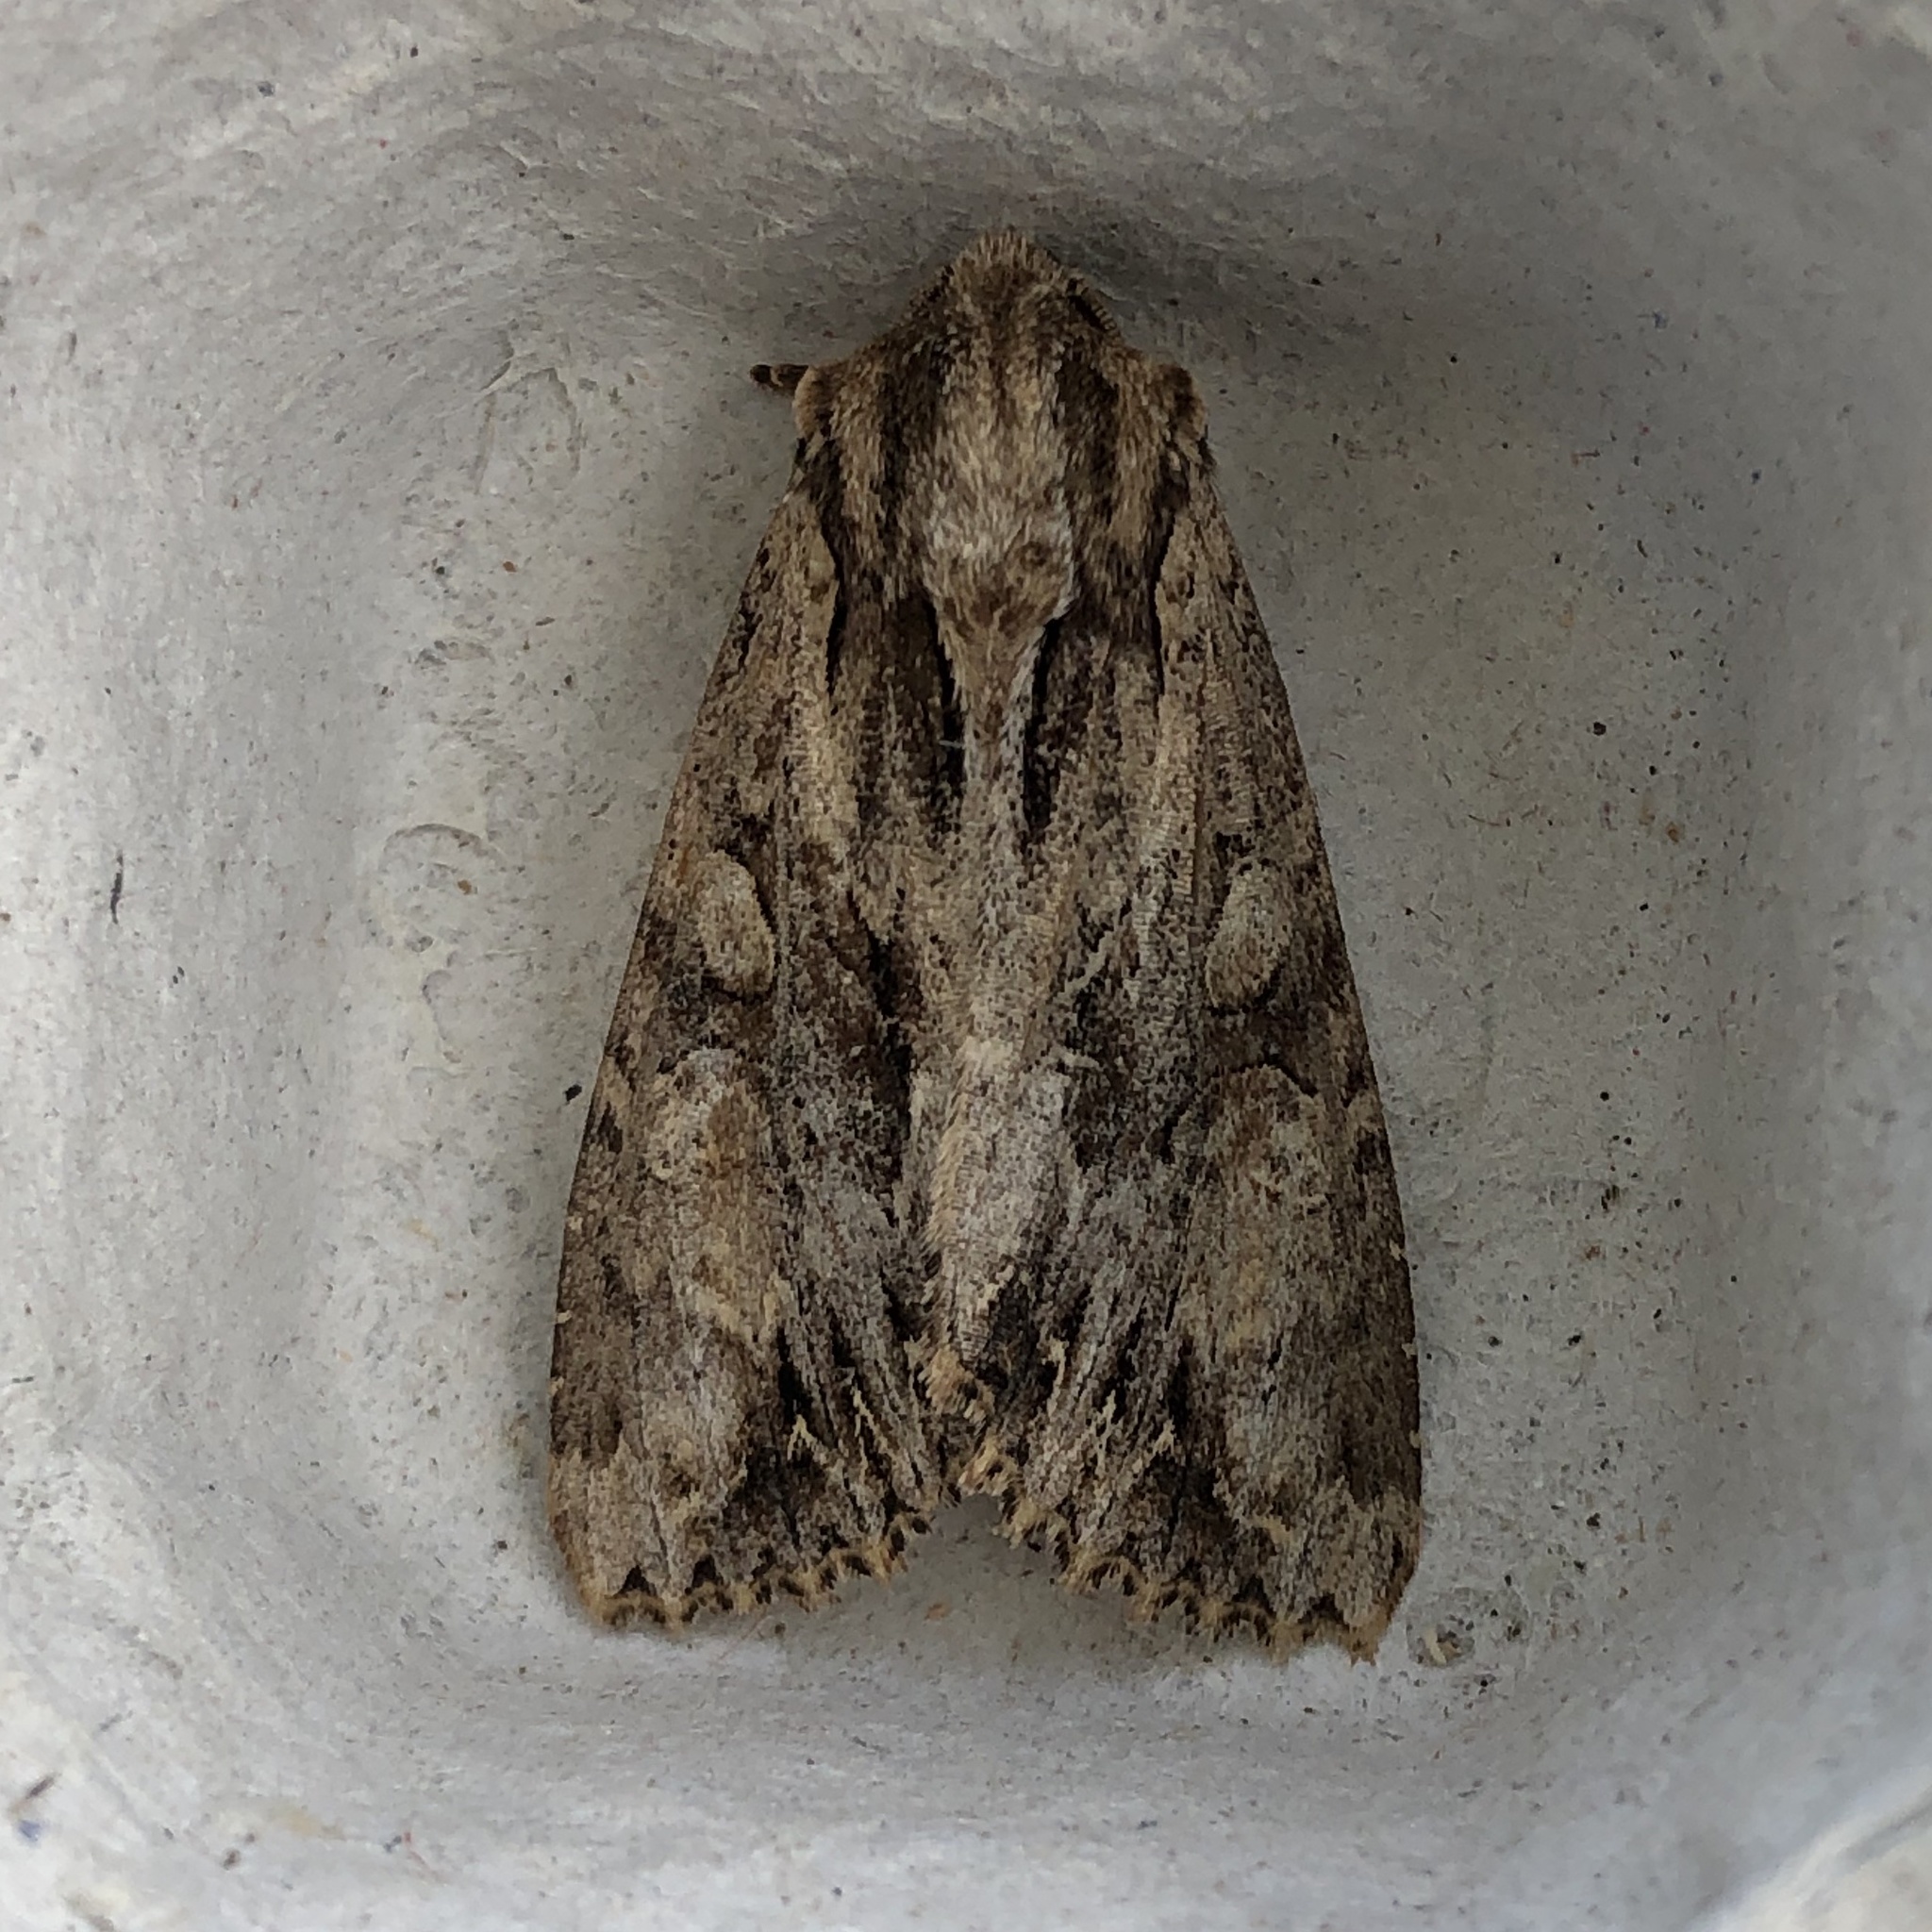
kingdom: Animalia
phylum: Arthropoda
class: Insecta
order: Lepidoptera
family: Noctuidae
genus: Apamea
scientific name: Apamea monoglypha
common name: Dark arches
